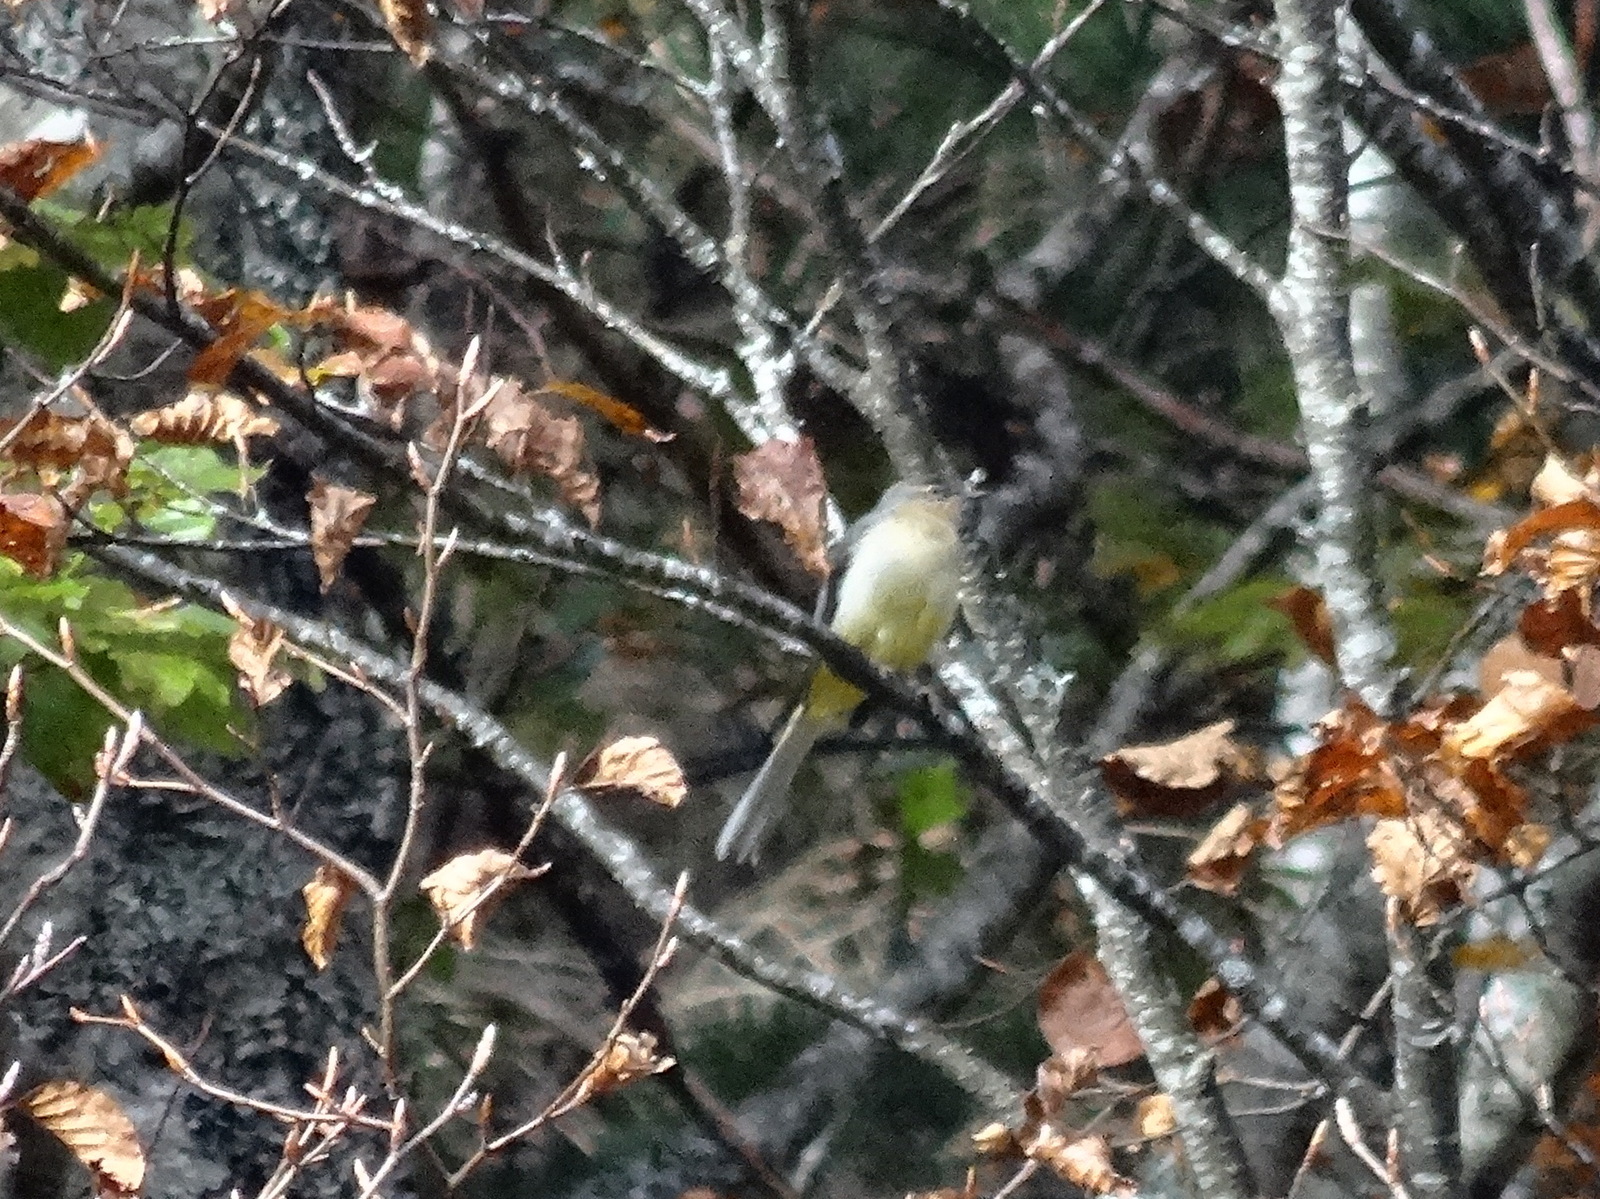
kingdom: Animalia
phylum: Chordata
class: Aves
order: Passeriformes
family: Motacillidae
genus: Motacilla
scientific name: Motacilla cinerea
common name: Grey wagtail
